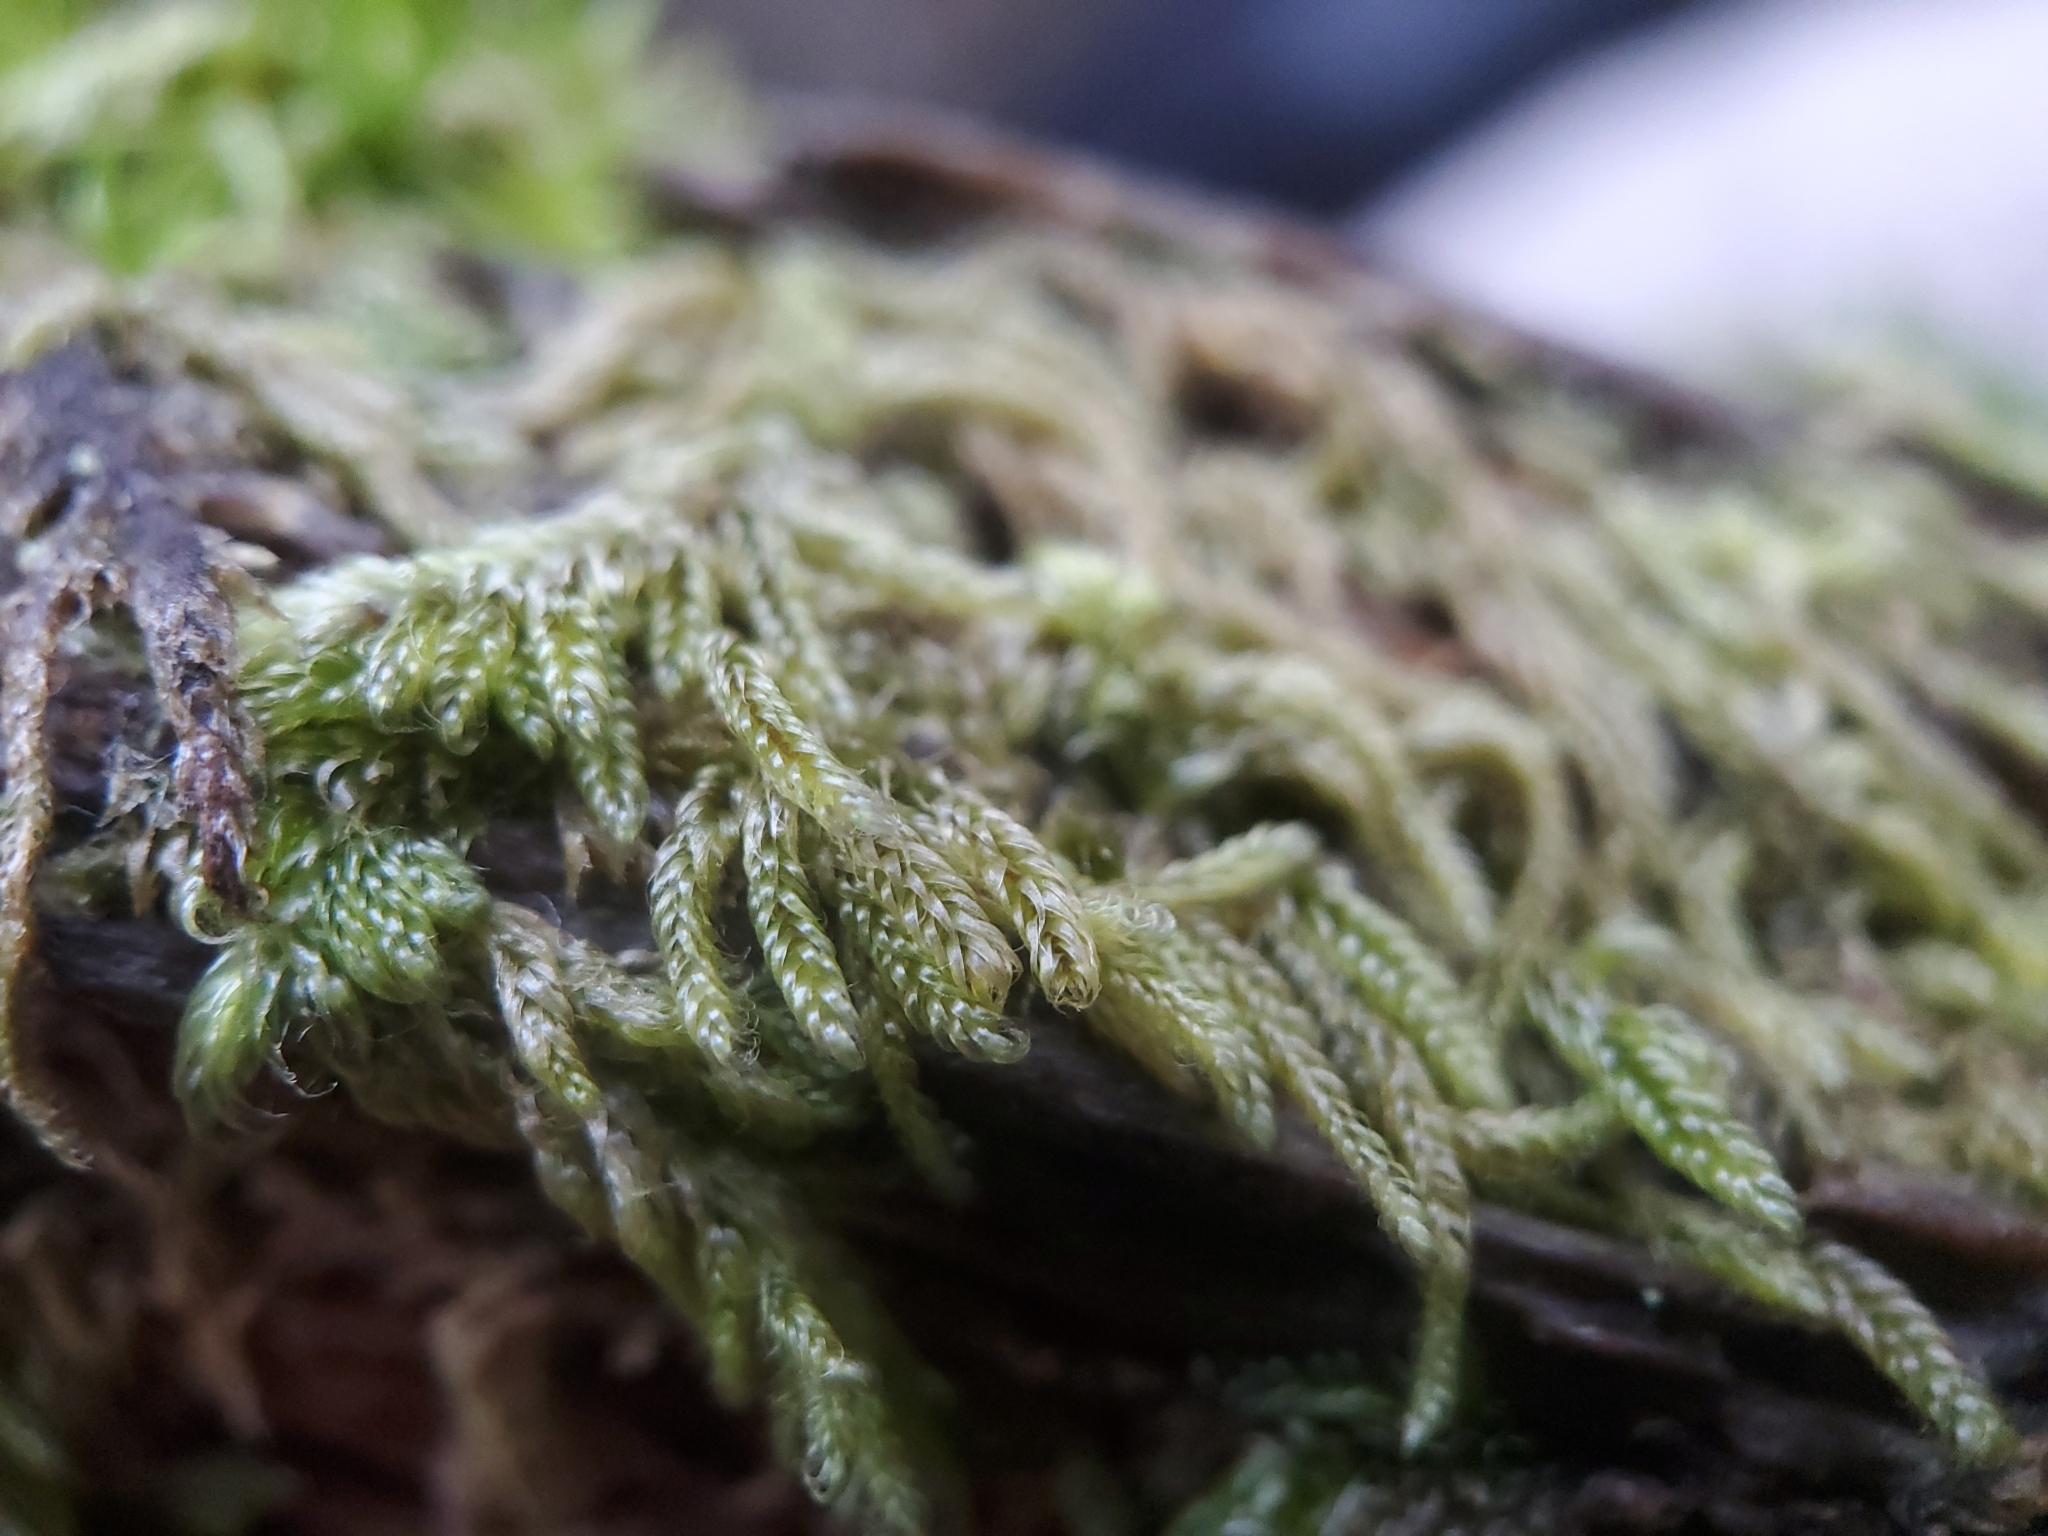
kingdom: Plantae
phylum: Bryophyta
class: Bryopsida
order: Hypnales
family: Pylaisiadelphaceae
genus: Trochophyllohypnum
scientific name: Trochophyllohypnum circinale
